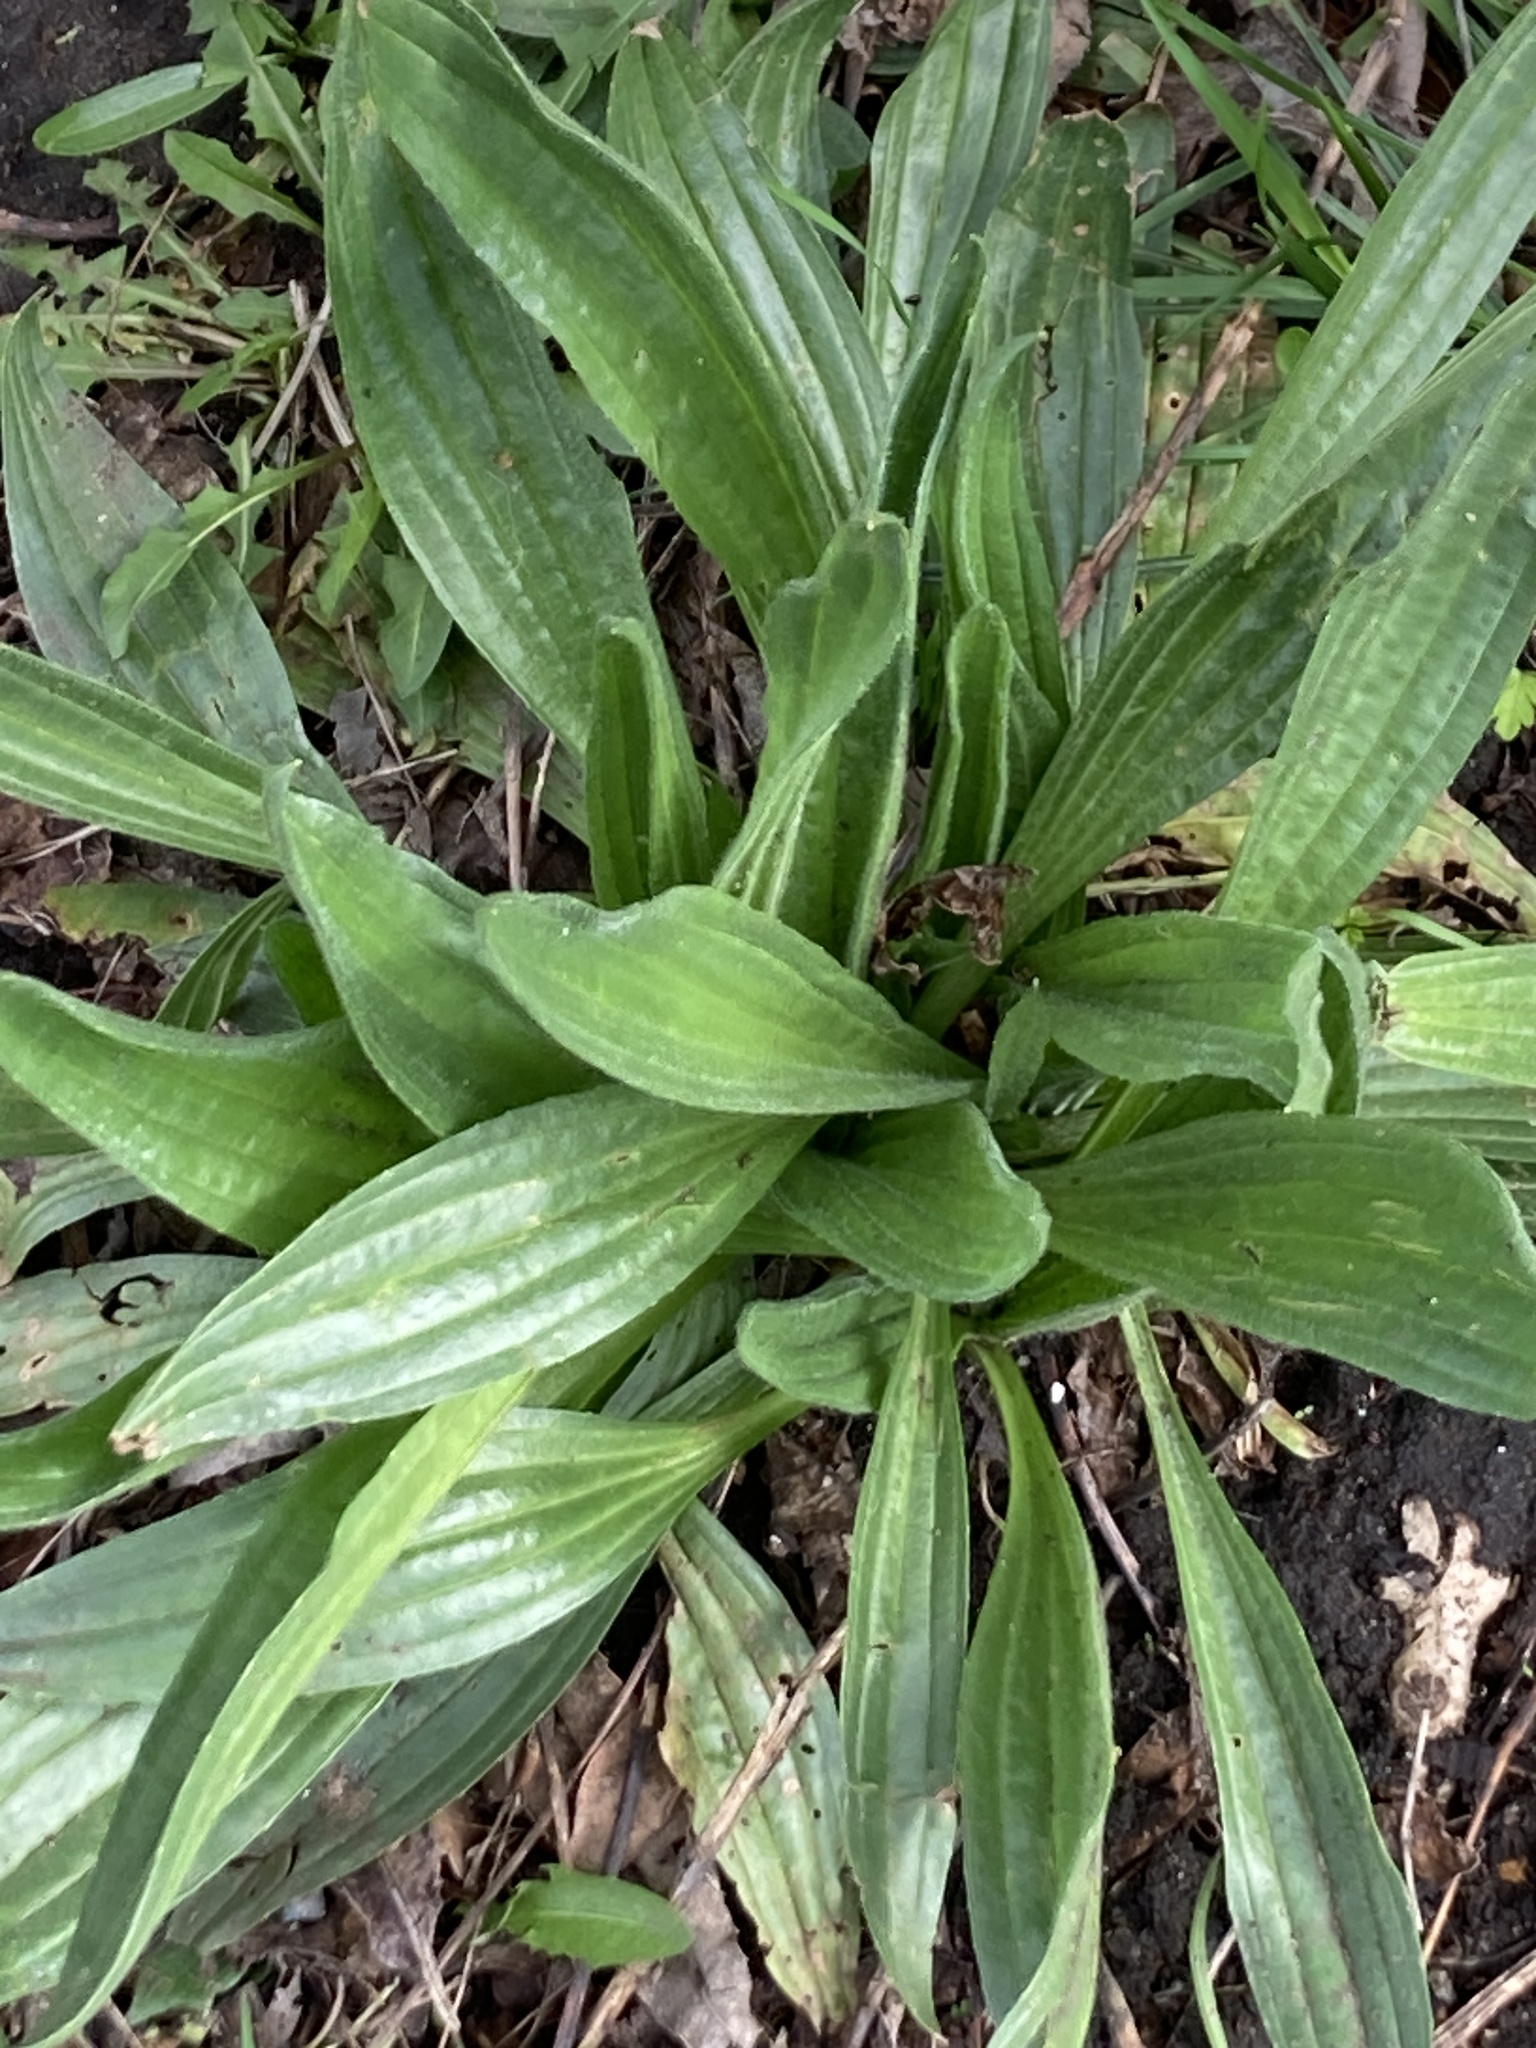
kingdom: Plantae
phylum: Tracheophyta
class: Magnoliopsida
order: Lamiales
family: Plantaginaceae
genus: Plantago
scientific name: Plantago lanceolata
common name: Ribwort plantain
